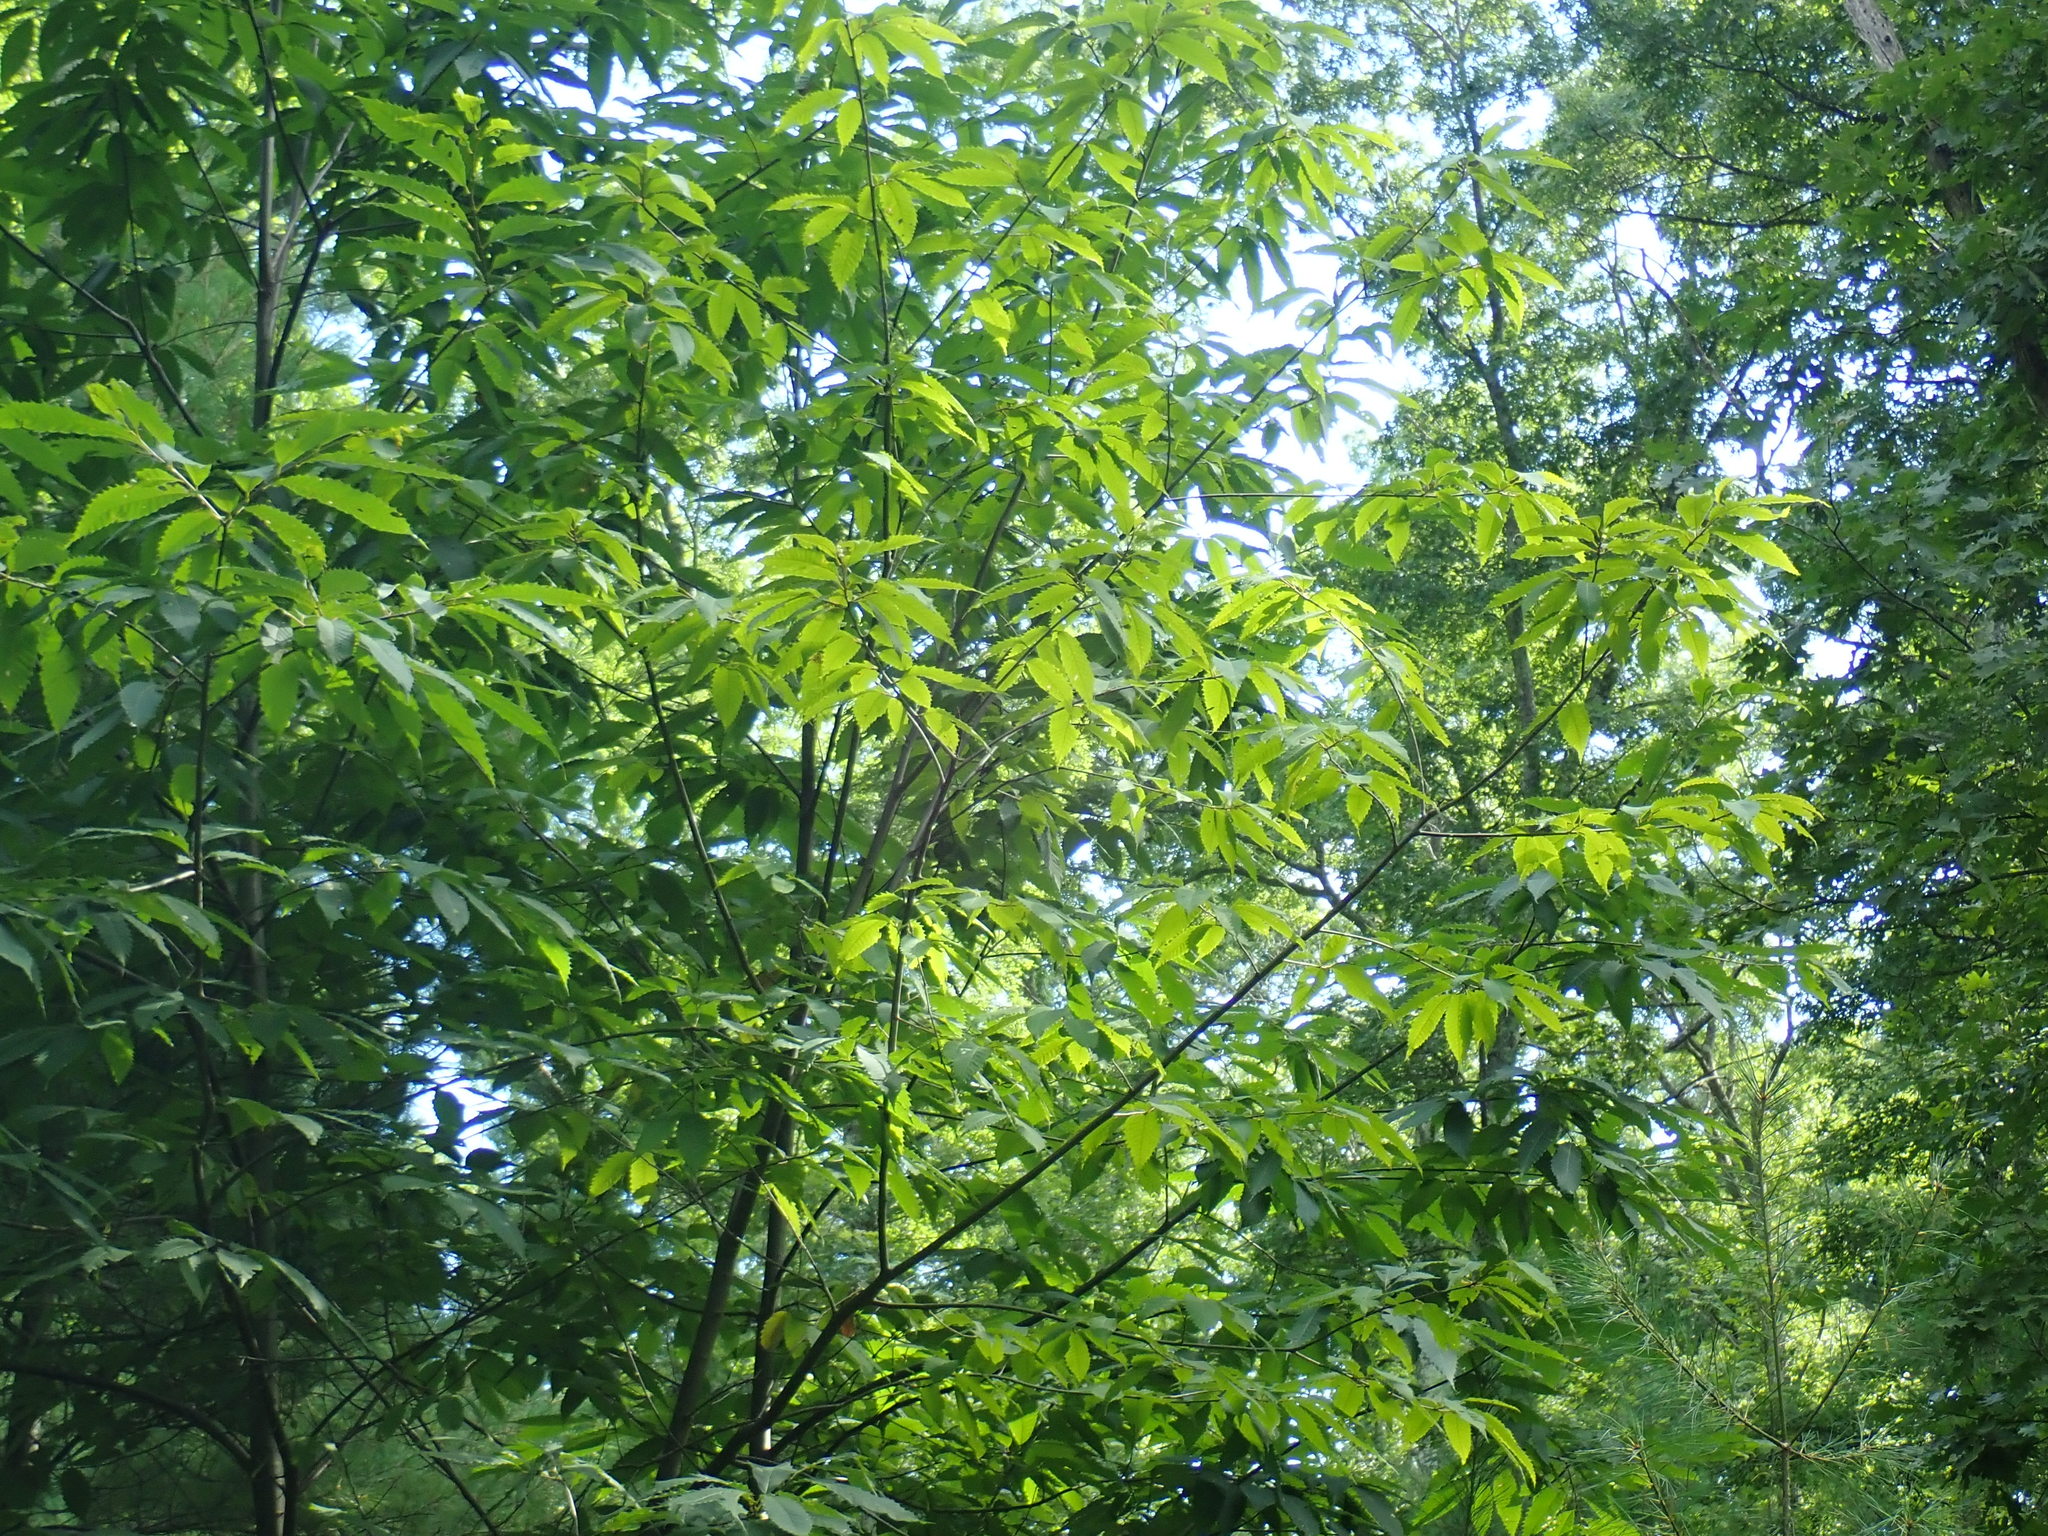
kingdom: Plantae
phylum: Tracheophyta
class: Magnoliopsida
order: Fagales
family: Fagaceae
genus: Castanea
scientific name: Castanea dentata
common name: American chestnut
